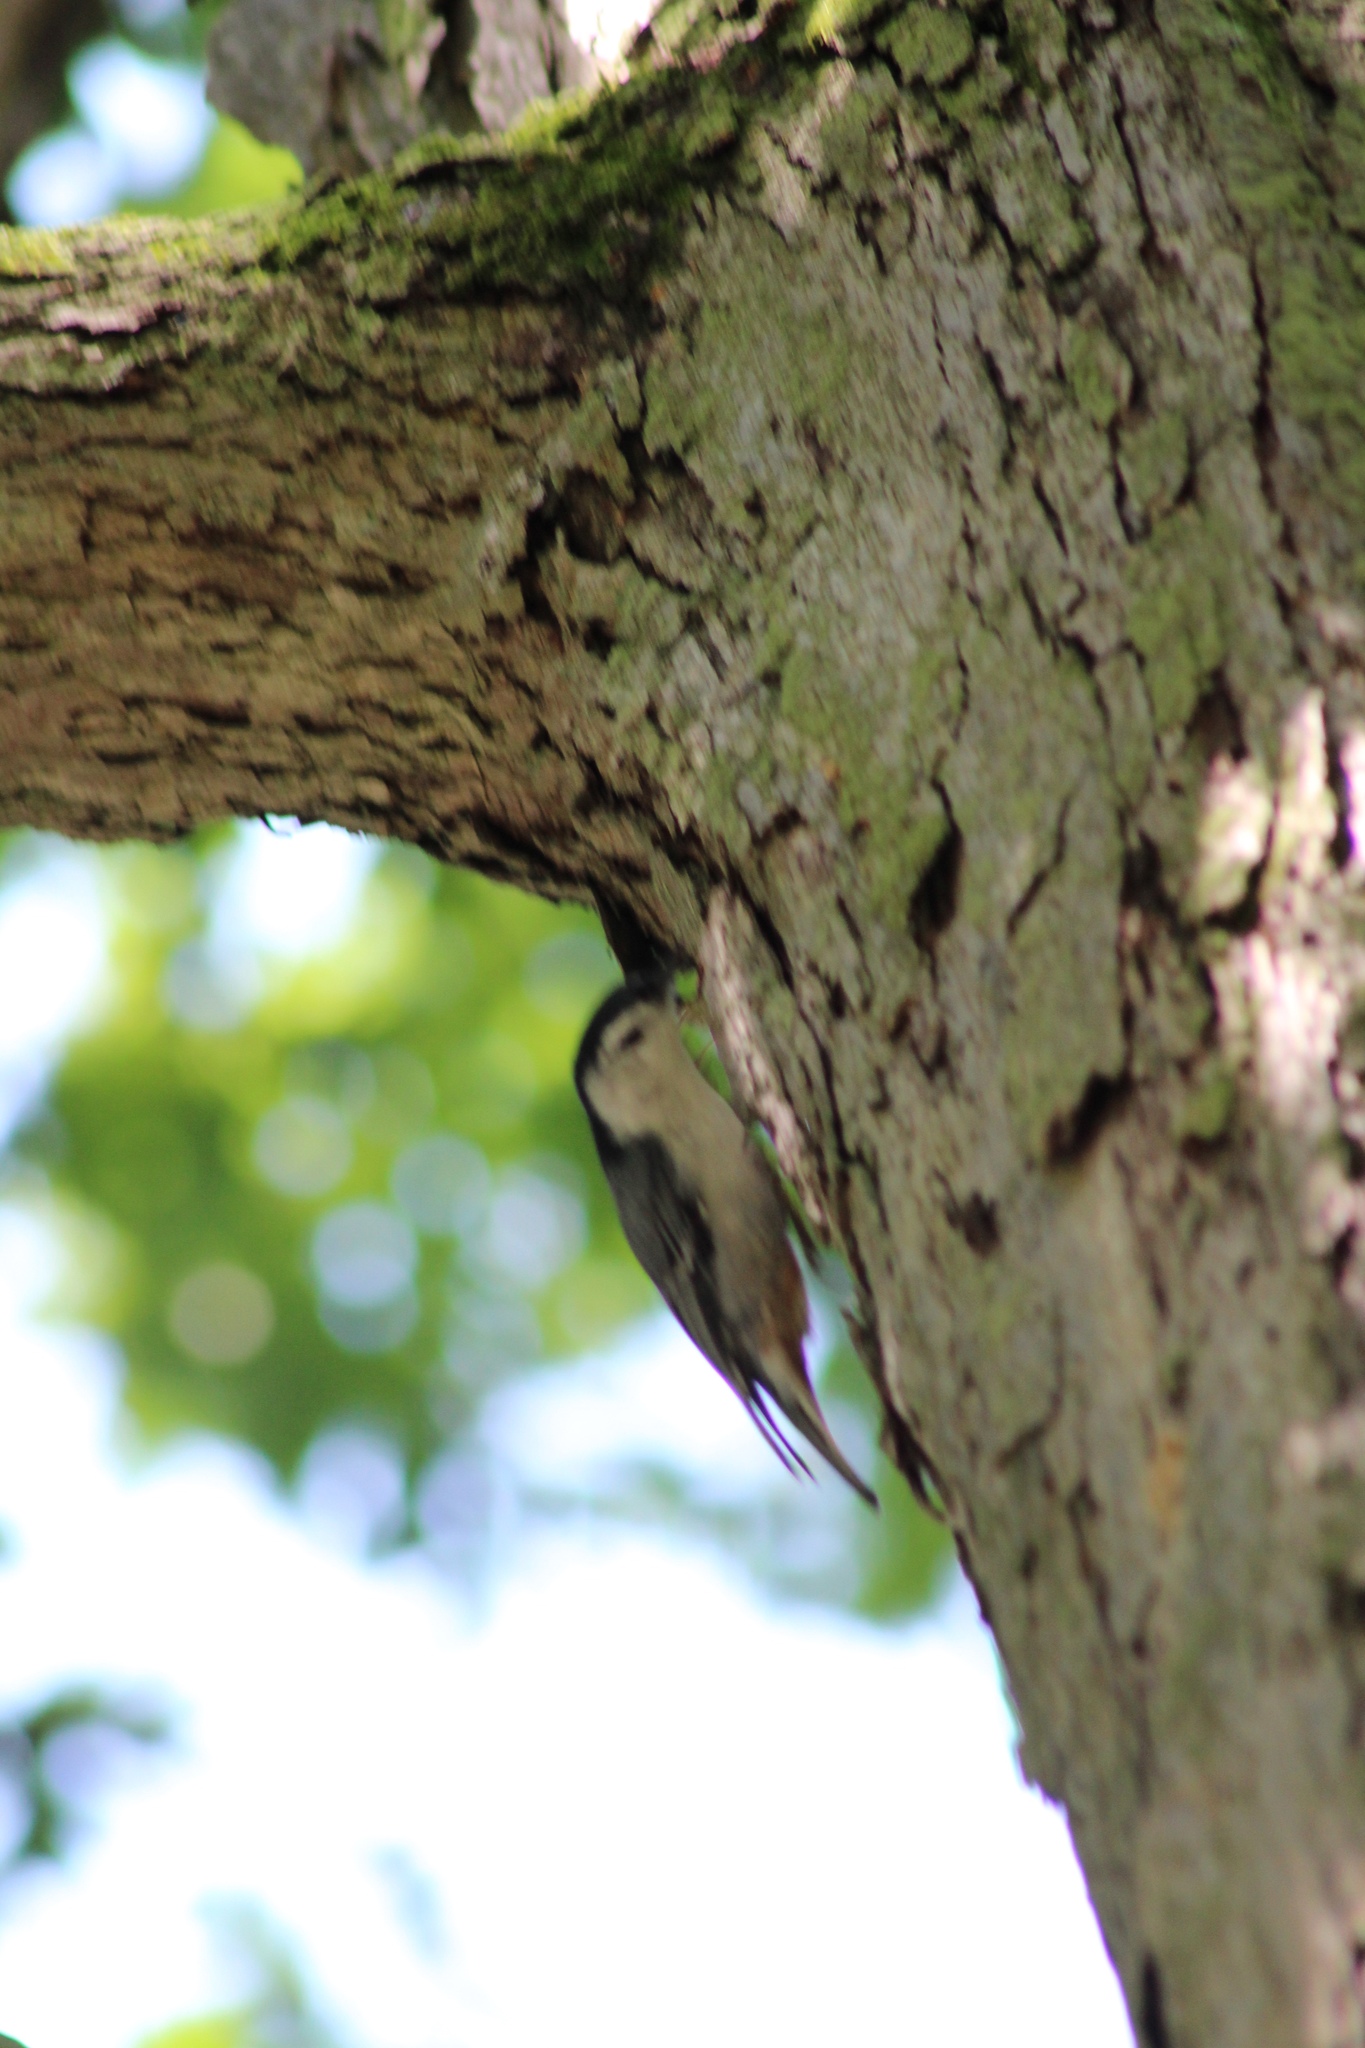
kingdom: Animalia
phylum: Chordata
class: Aves
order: Passeriformes
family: Sittidae
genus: Sitta
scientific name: Sitta carolinensis
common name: White-breasted nuthatch
